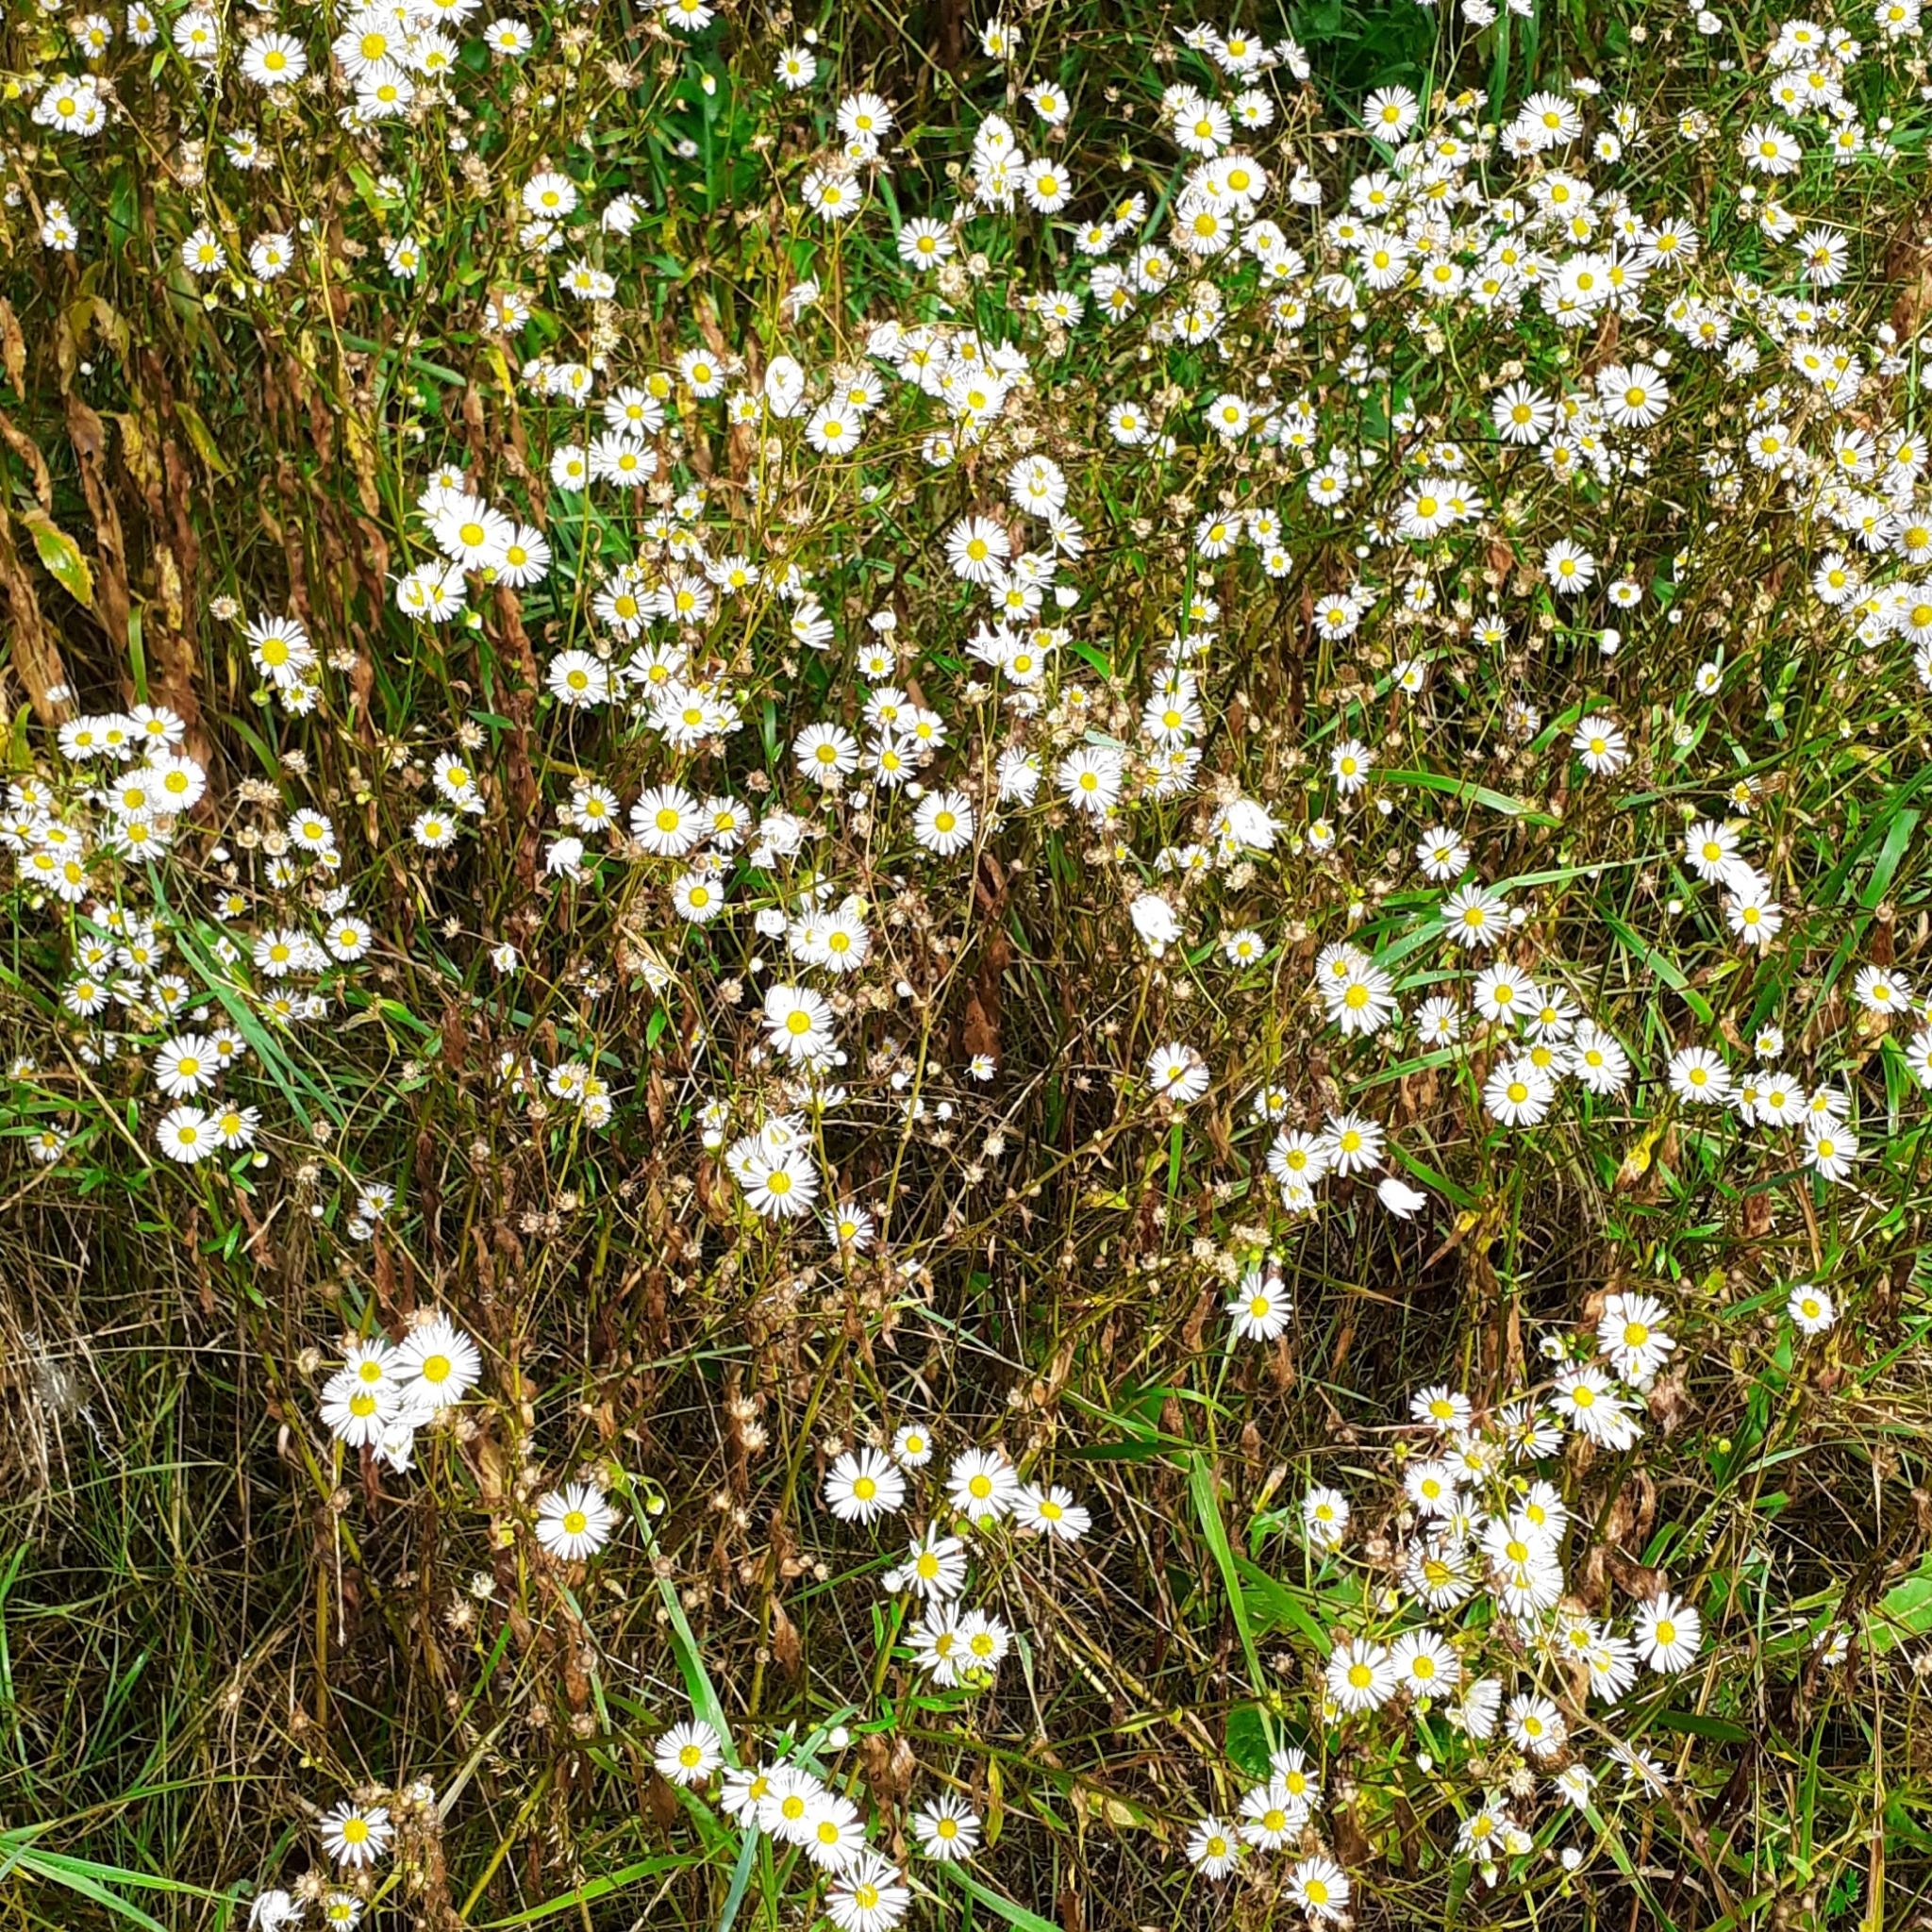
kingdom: Plantae
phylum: Tracheophyta
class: Magnoliopsida
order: Asterales
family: Asteraceae
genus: Erigeron
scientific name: Erigeron annuus
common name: Tall fleabane
